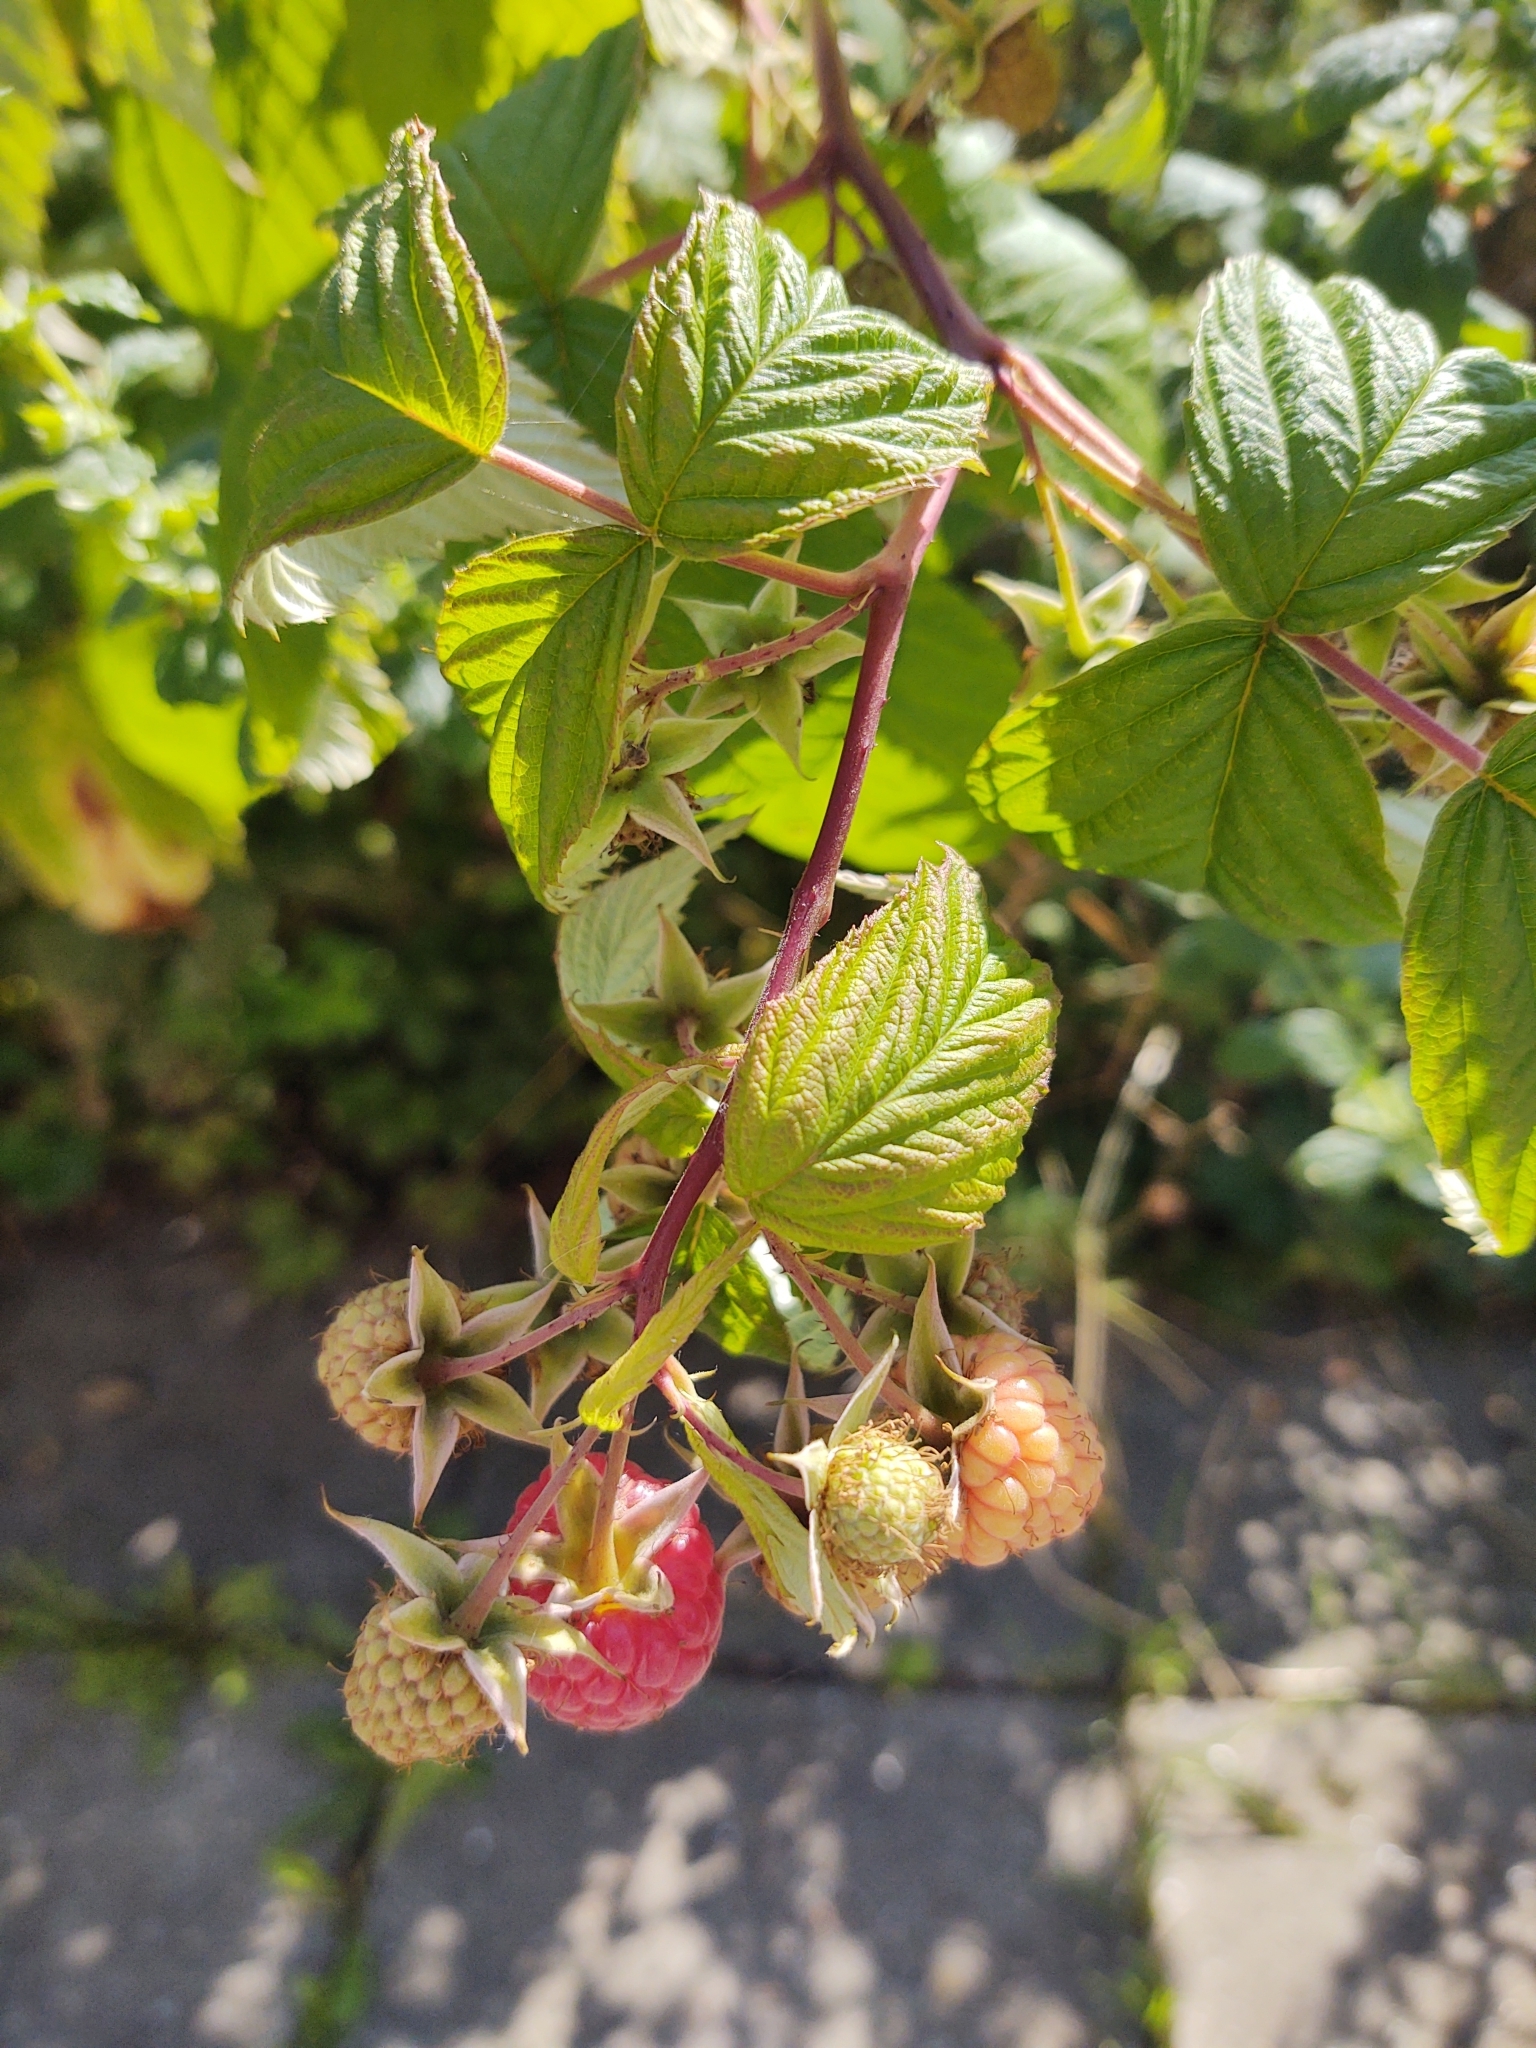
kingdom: Plantae
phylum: Tracheophyta
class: Magnoliopsida
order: Rosales
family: Rosaceae
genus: Rubus
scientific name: Rubus idaeus
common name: Raspberry
